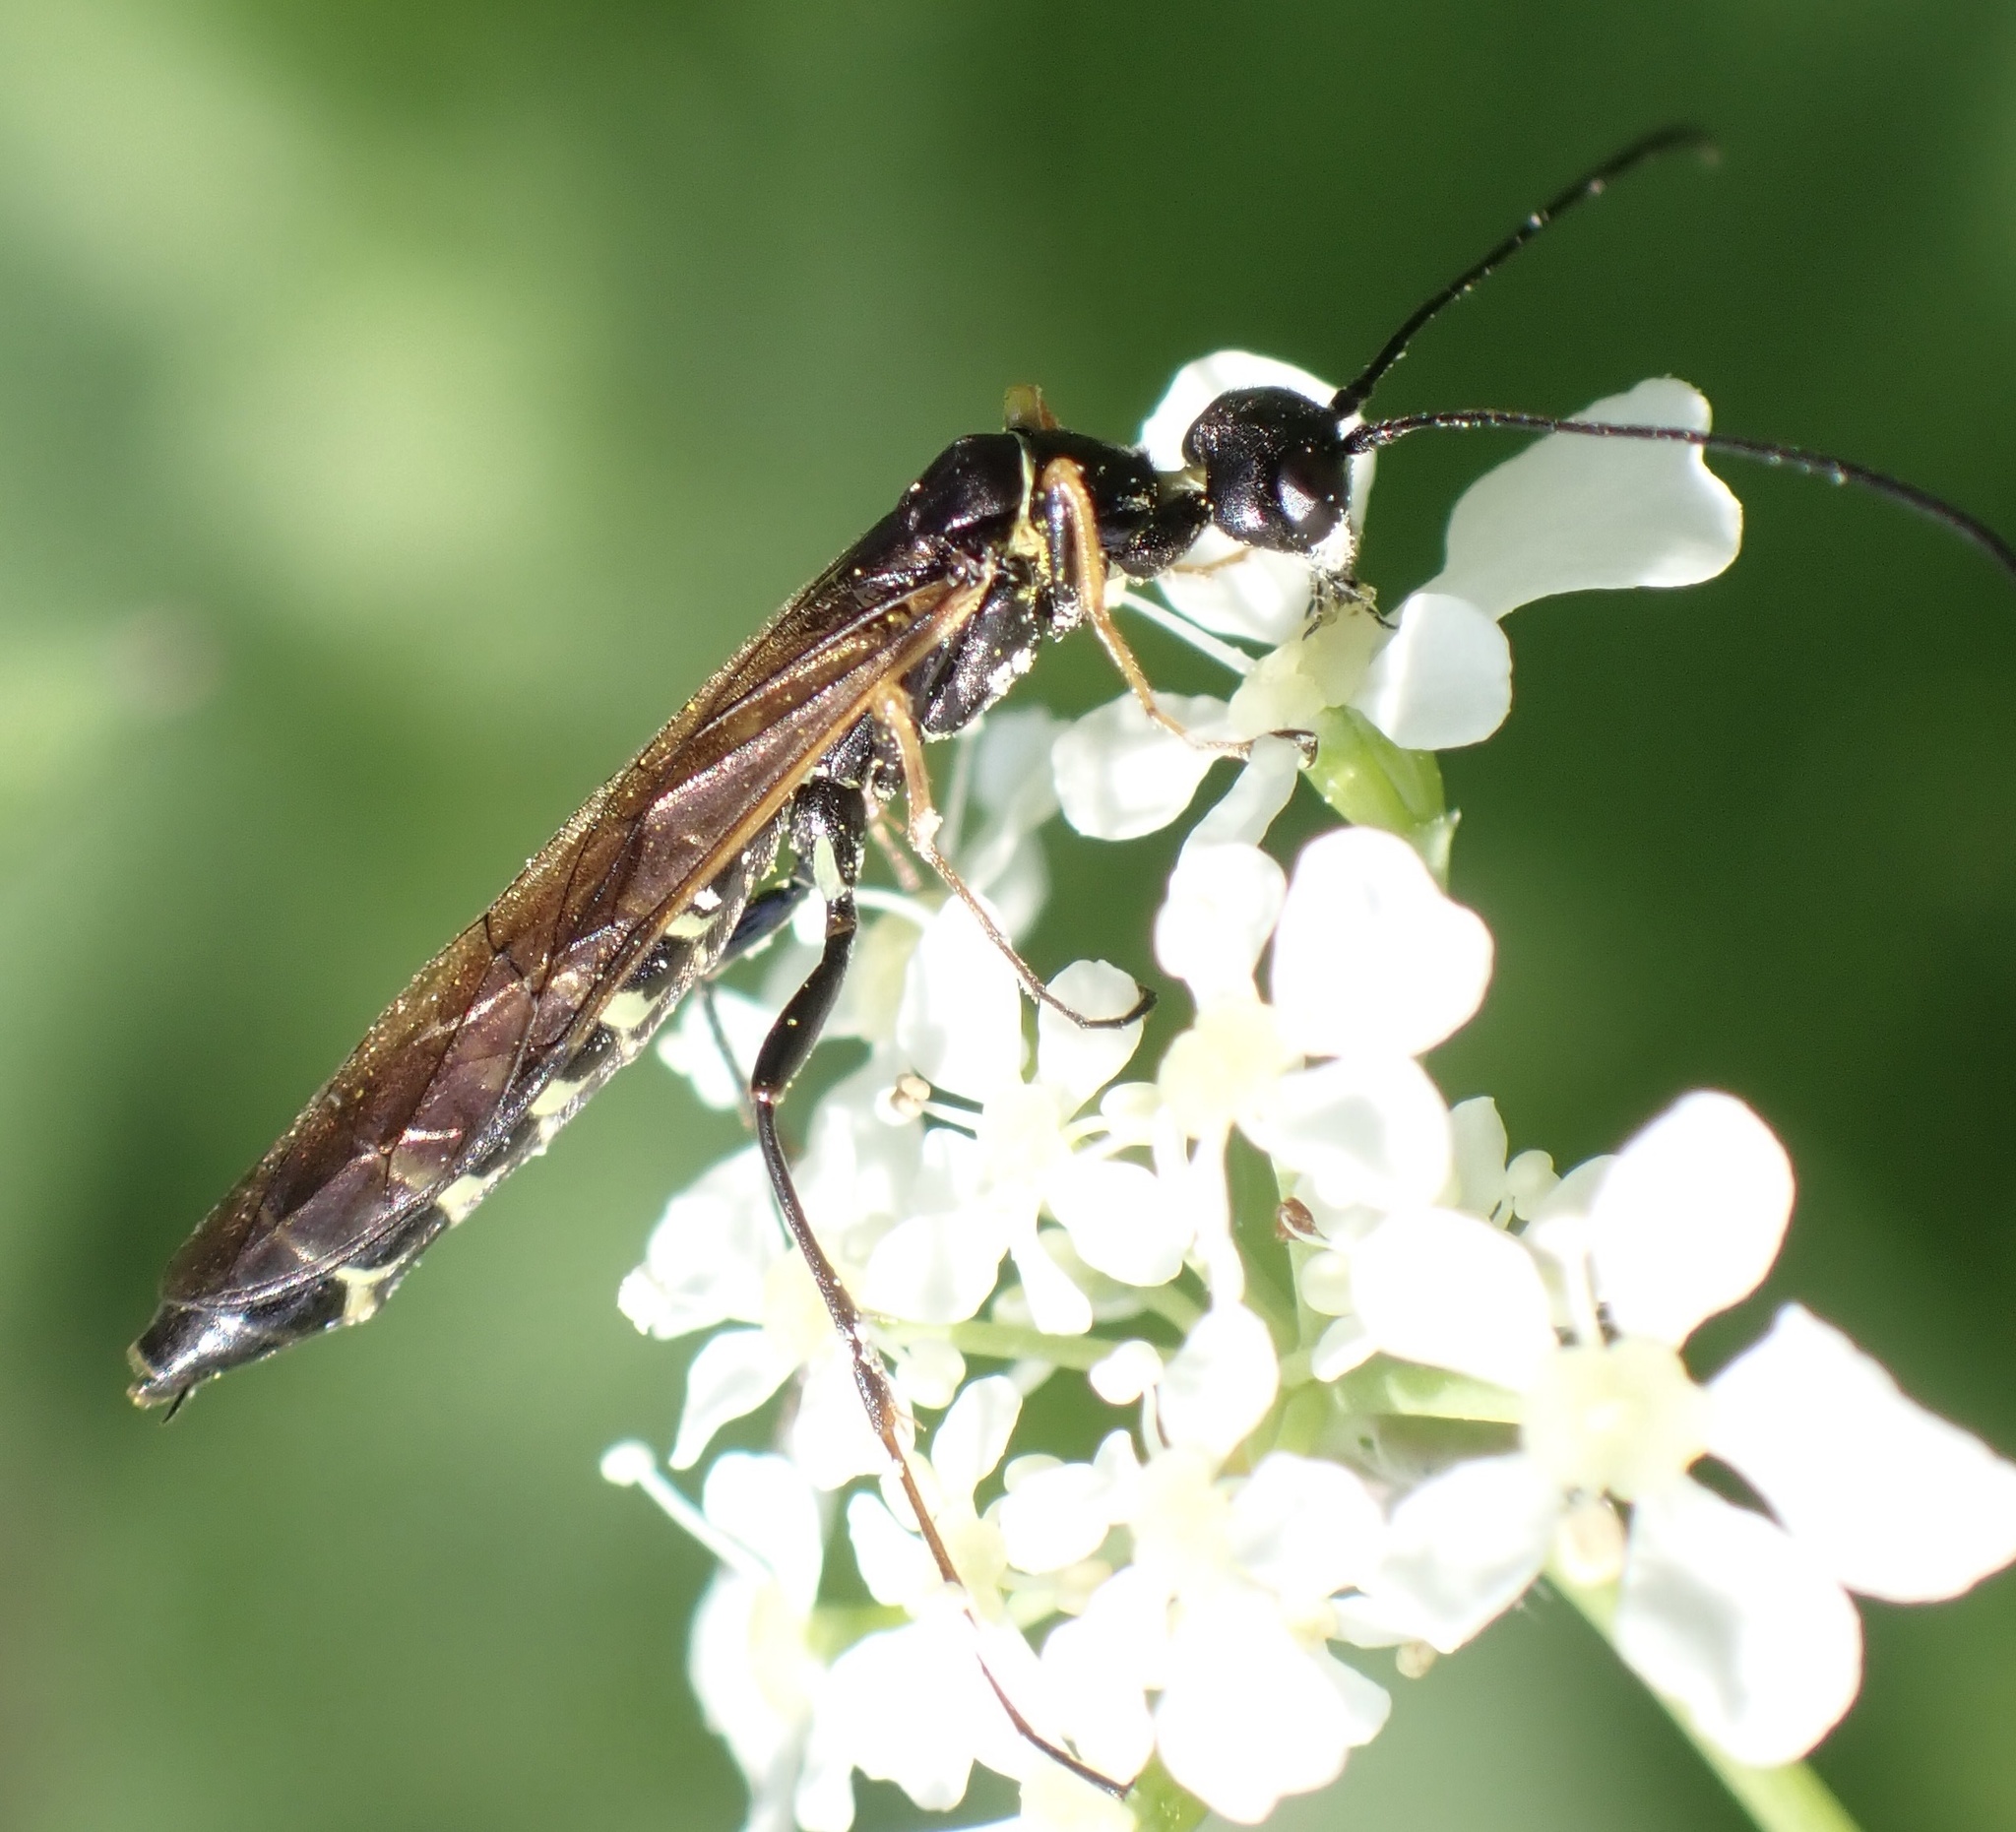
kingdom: Animalia
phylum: Arthropoda
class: Insecta
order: Hymenoptera
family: Cephidae
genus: Calameuta
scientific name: Calameuta filiformis
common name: Reed stem borer
